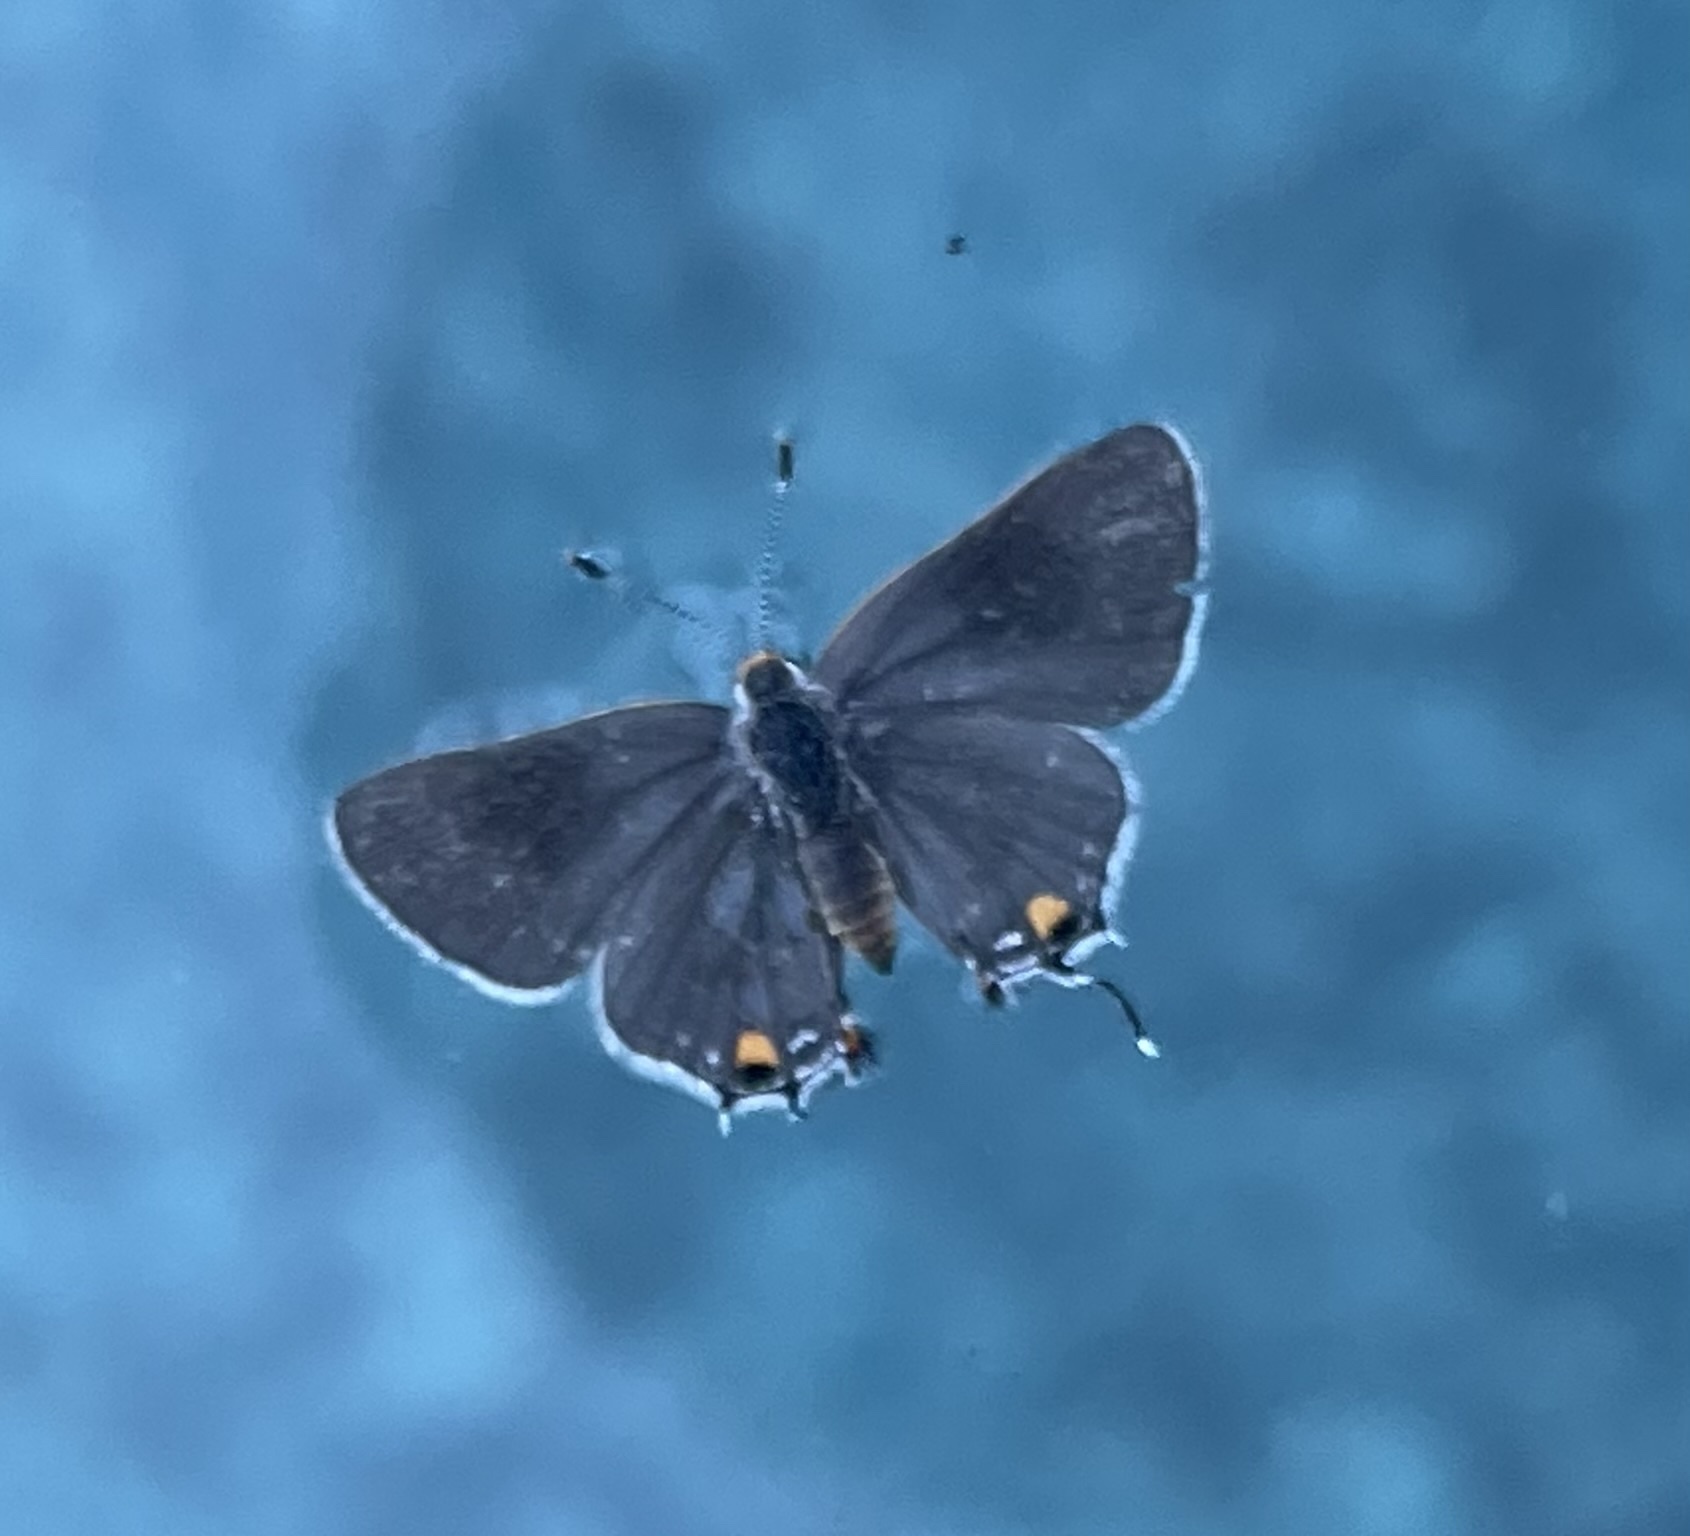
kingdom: Animalia
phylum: Arthropoda
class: Insecta
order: Lepidoptera
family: Lycaenidae
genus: Strymon
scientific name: Strymon melinus
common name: Gray hairstreak
